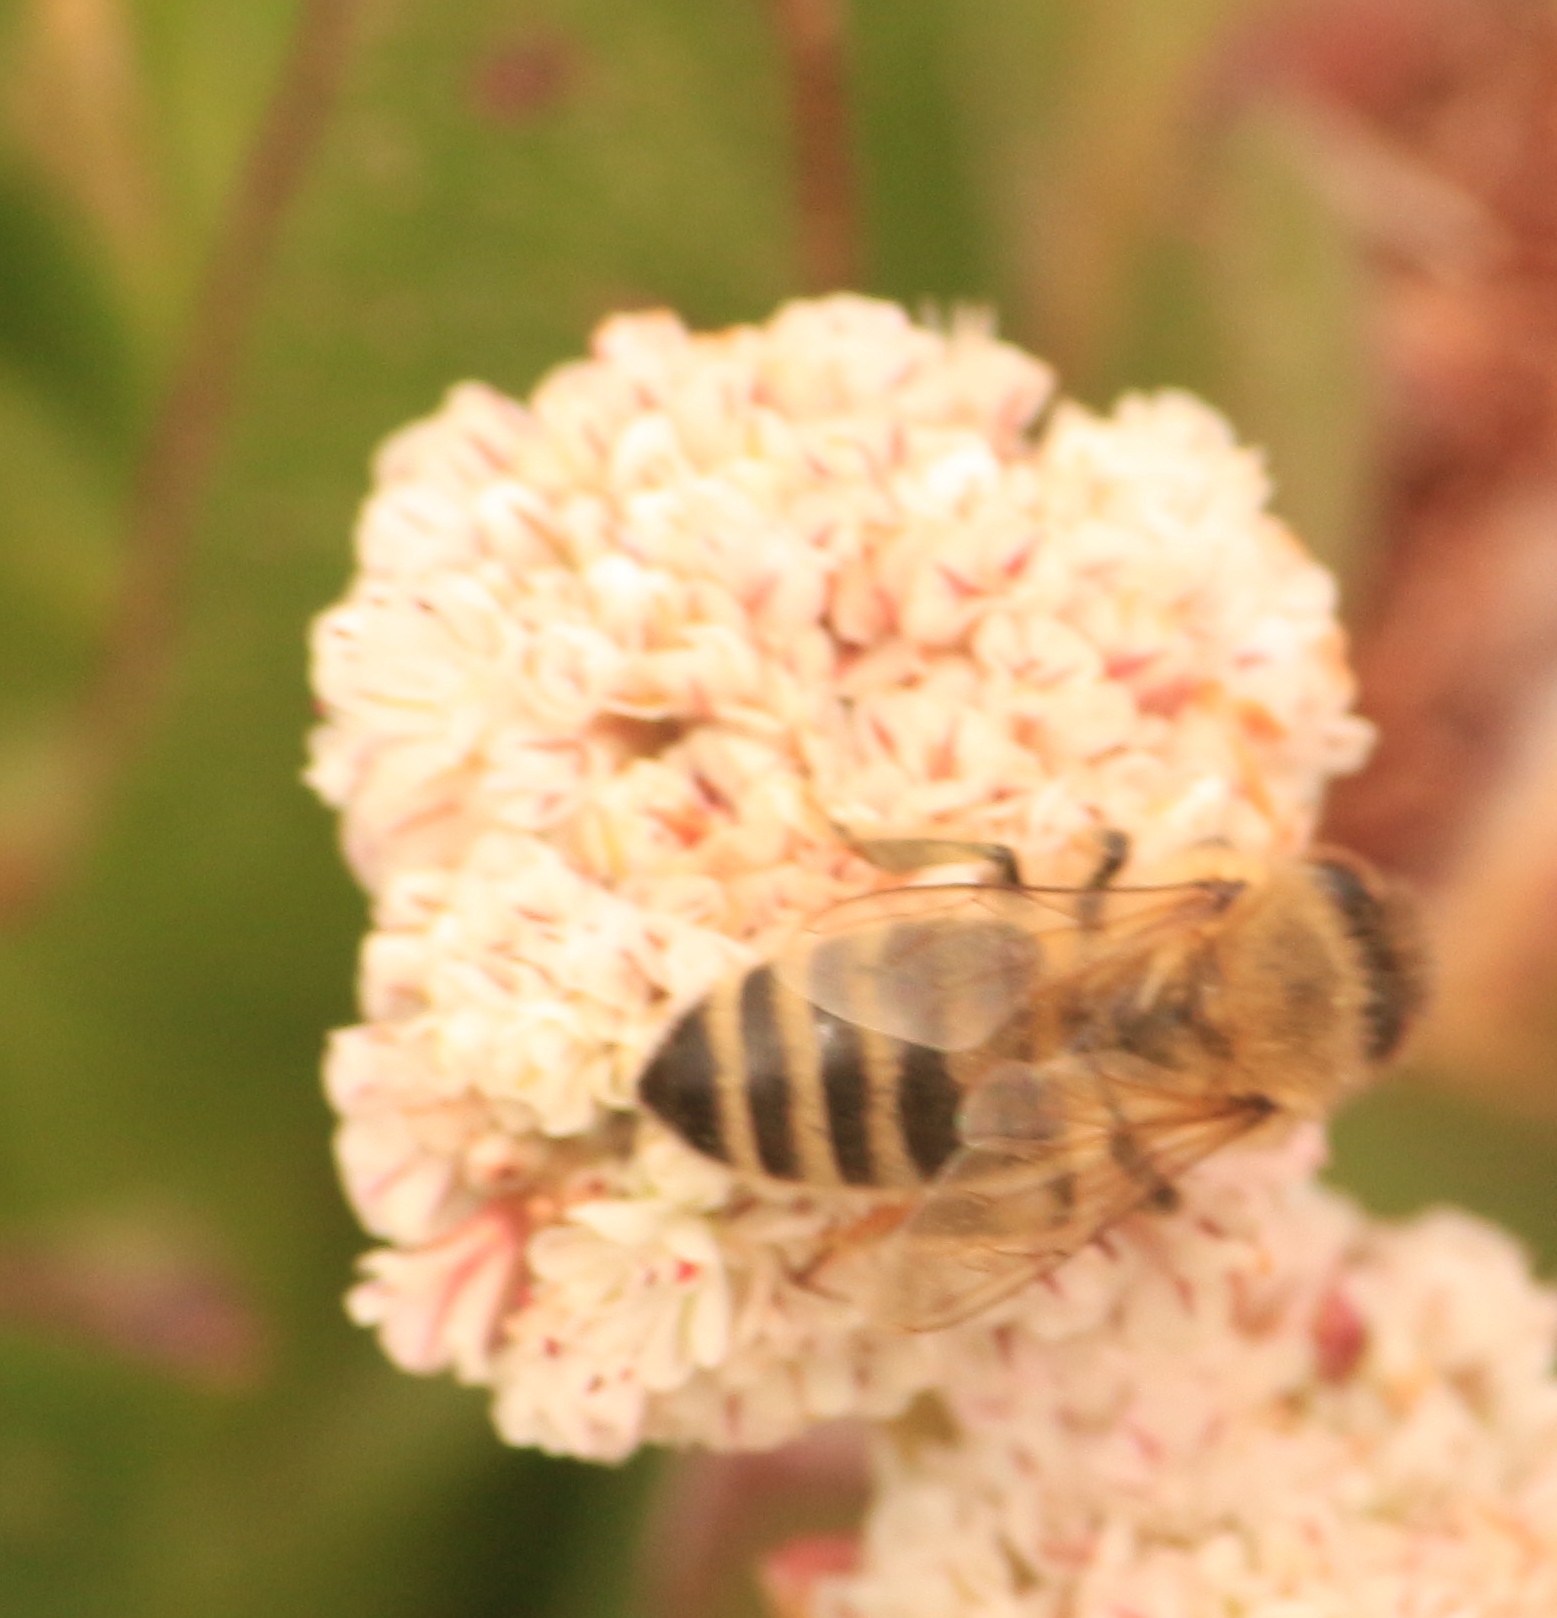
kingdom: Animalia
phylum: Arthropoda
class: Insecta
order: Hymenoptera
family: Apidae
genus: Apis
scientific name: Apis mellifera
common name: Honey bee
